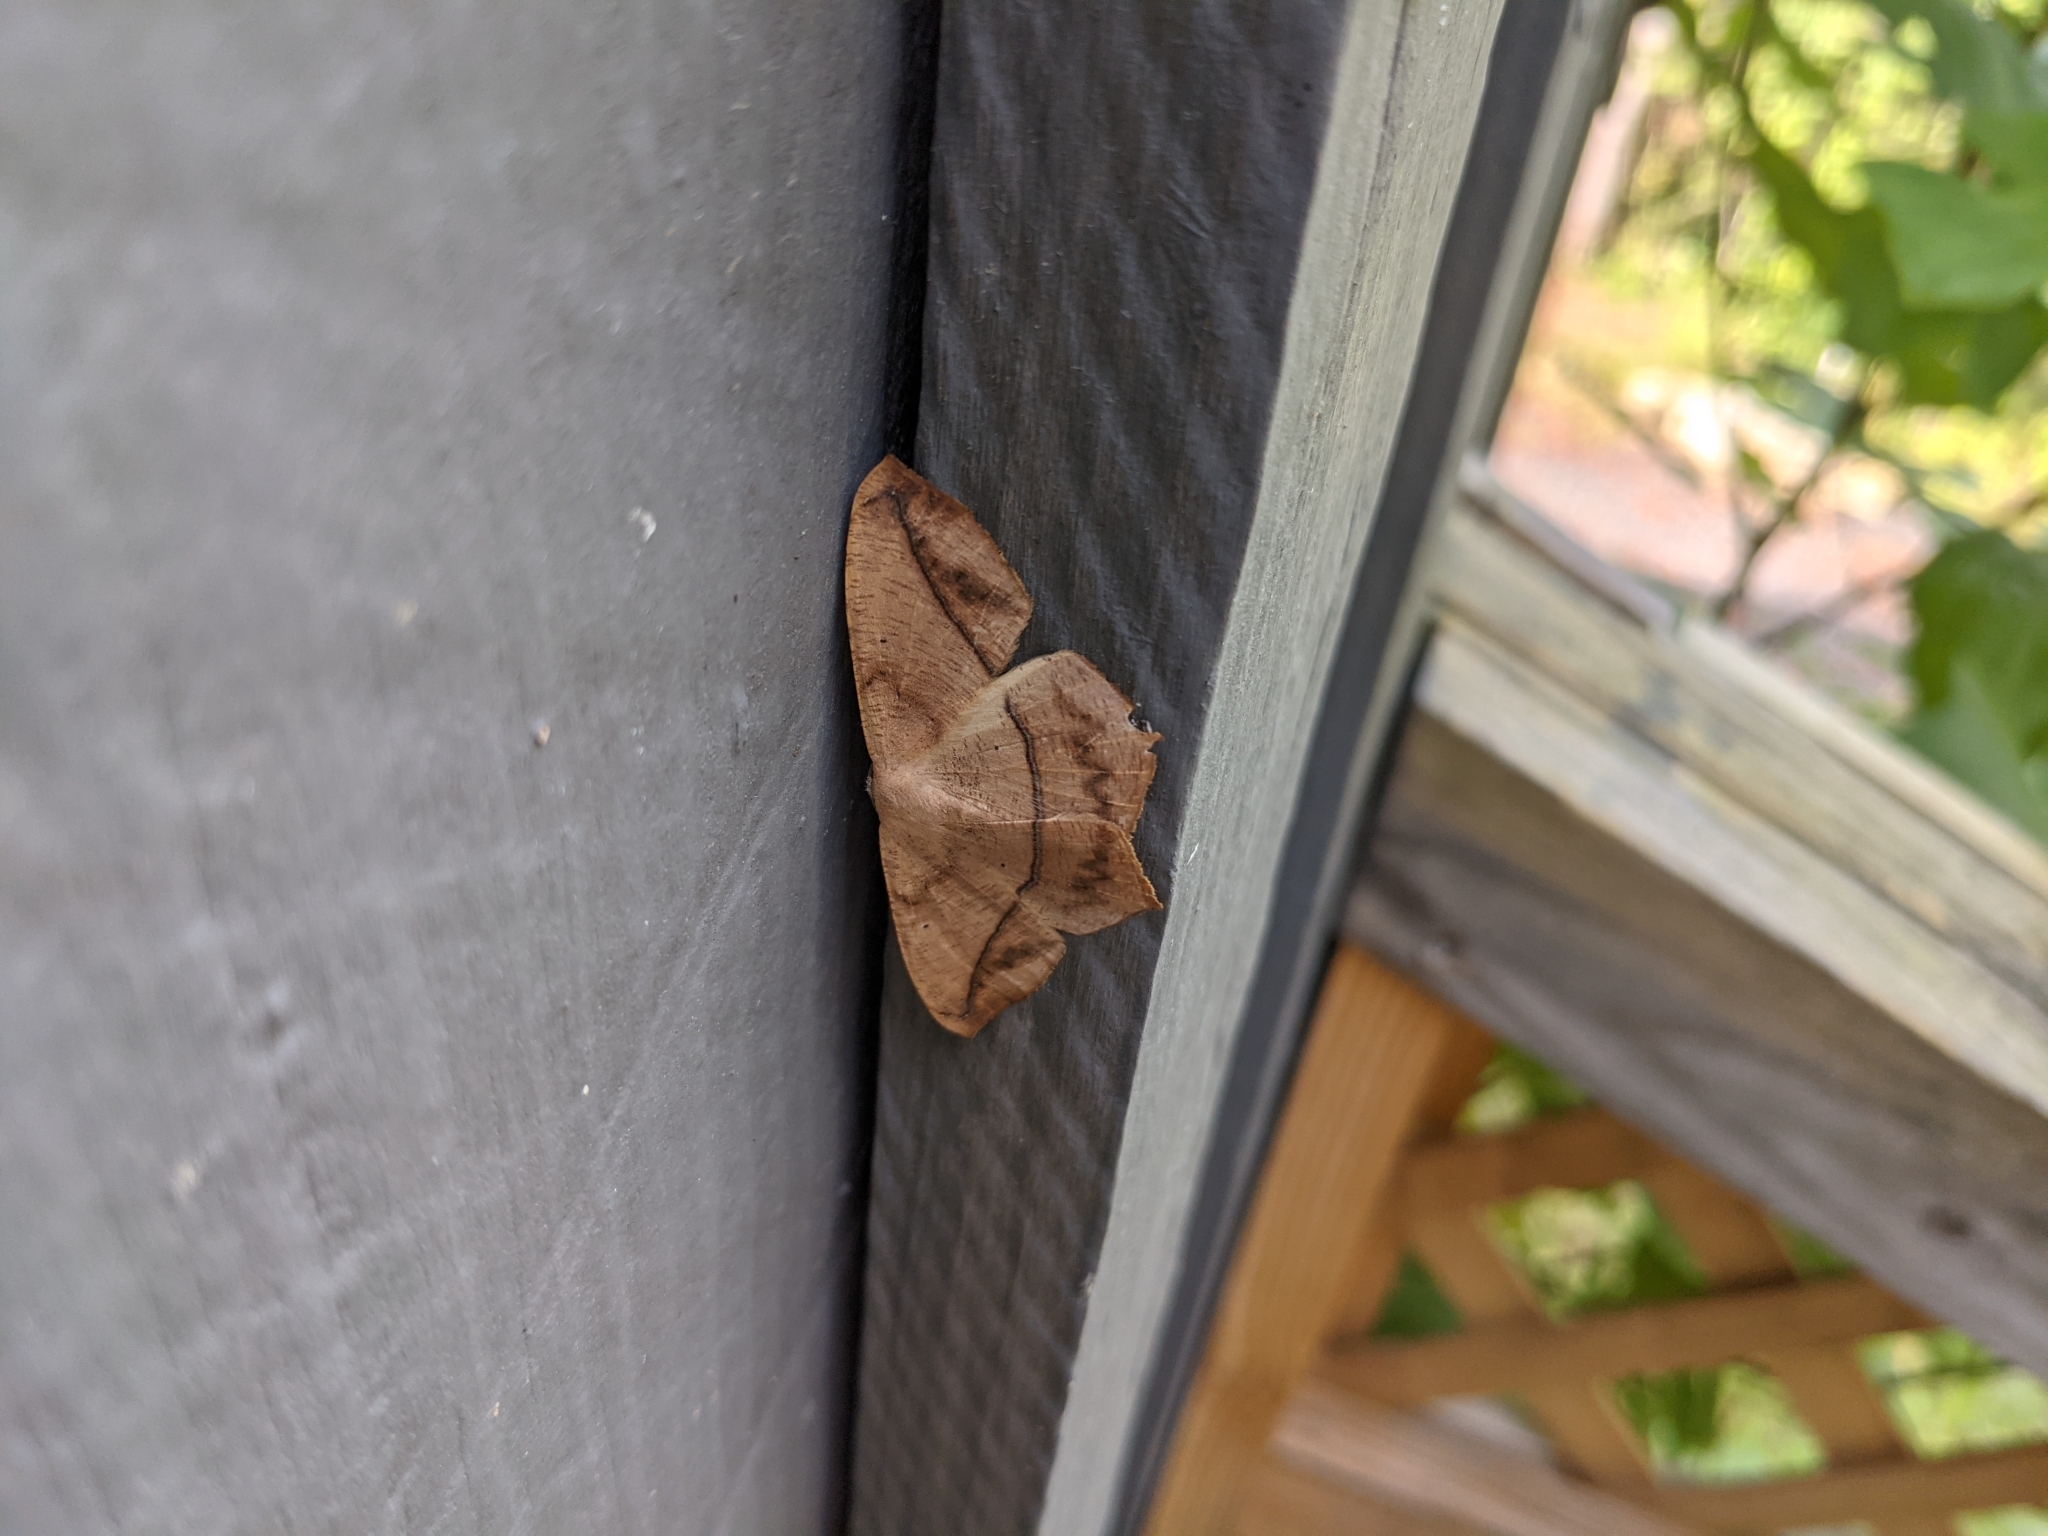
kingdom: Animalia
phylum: Arthropoda
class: Insecta
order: Lepidoptera
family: Geometridae
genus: Prochoerodes
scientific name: Prochoerodes lineola
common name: Large maple spanworm
